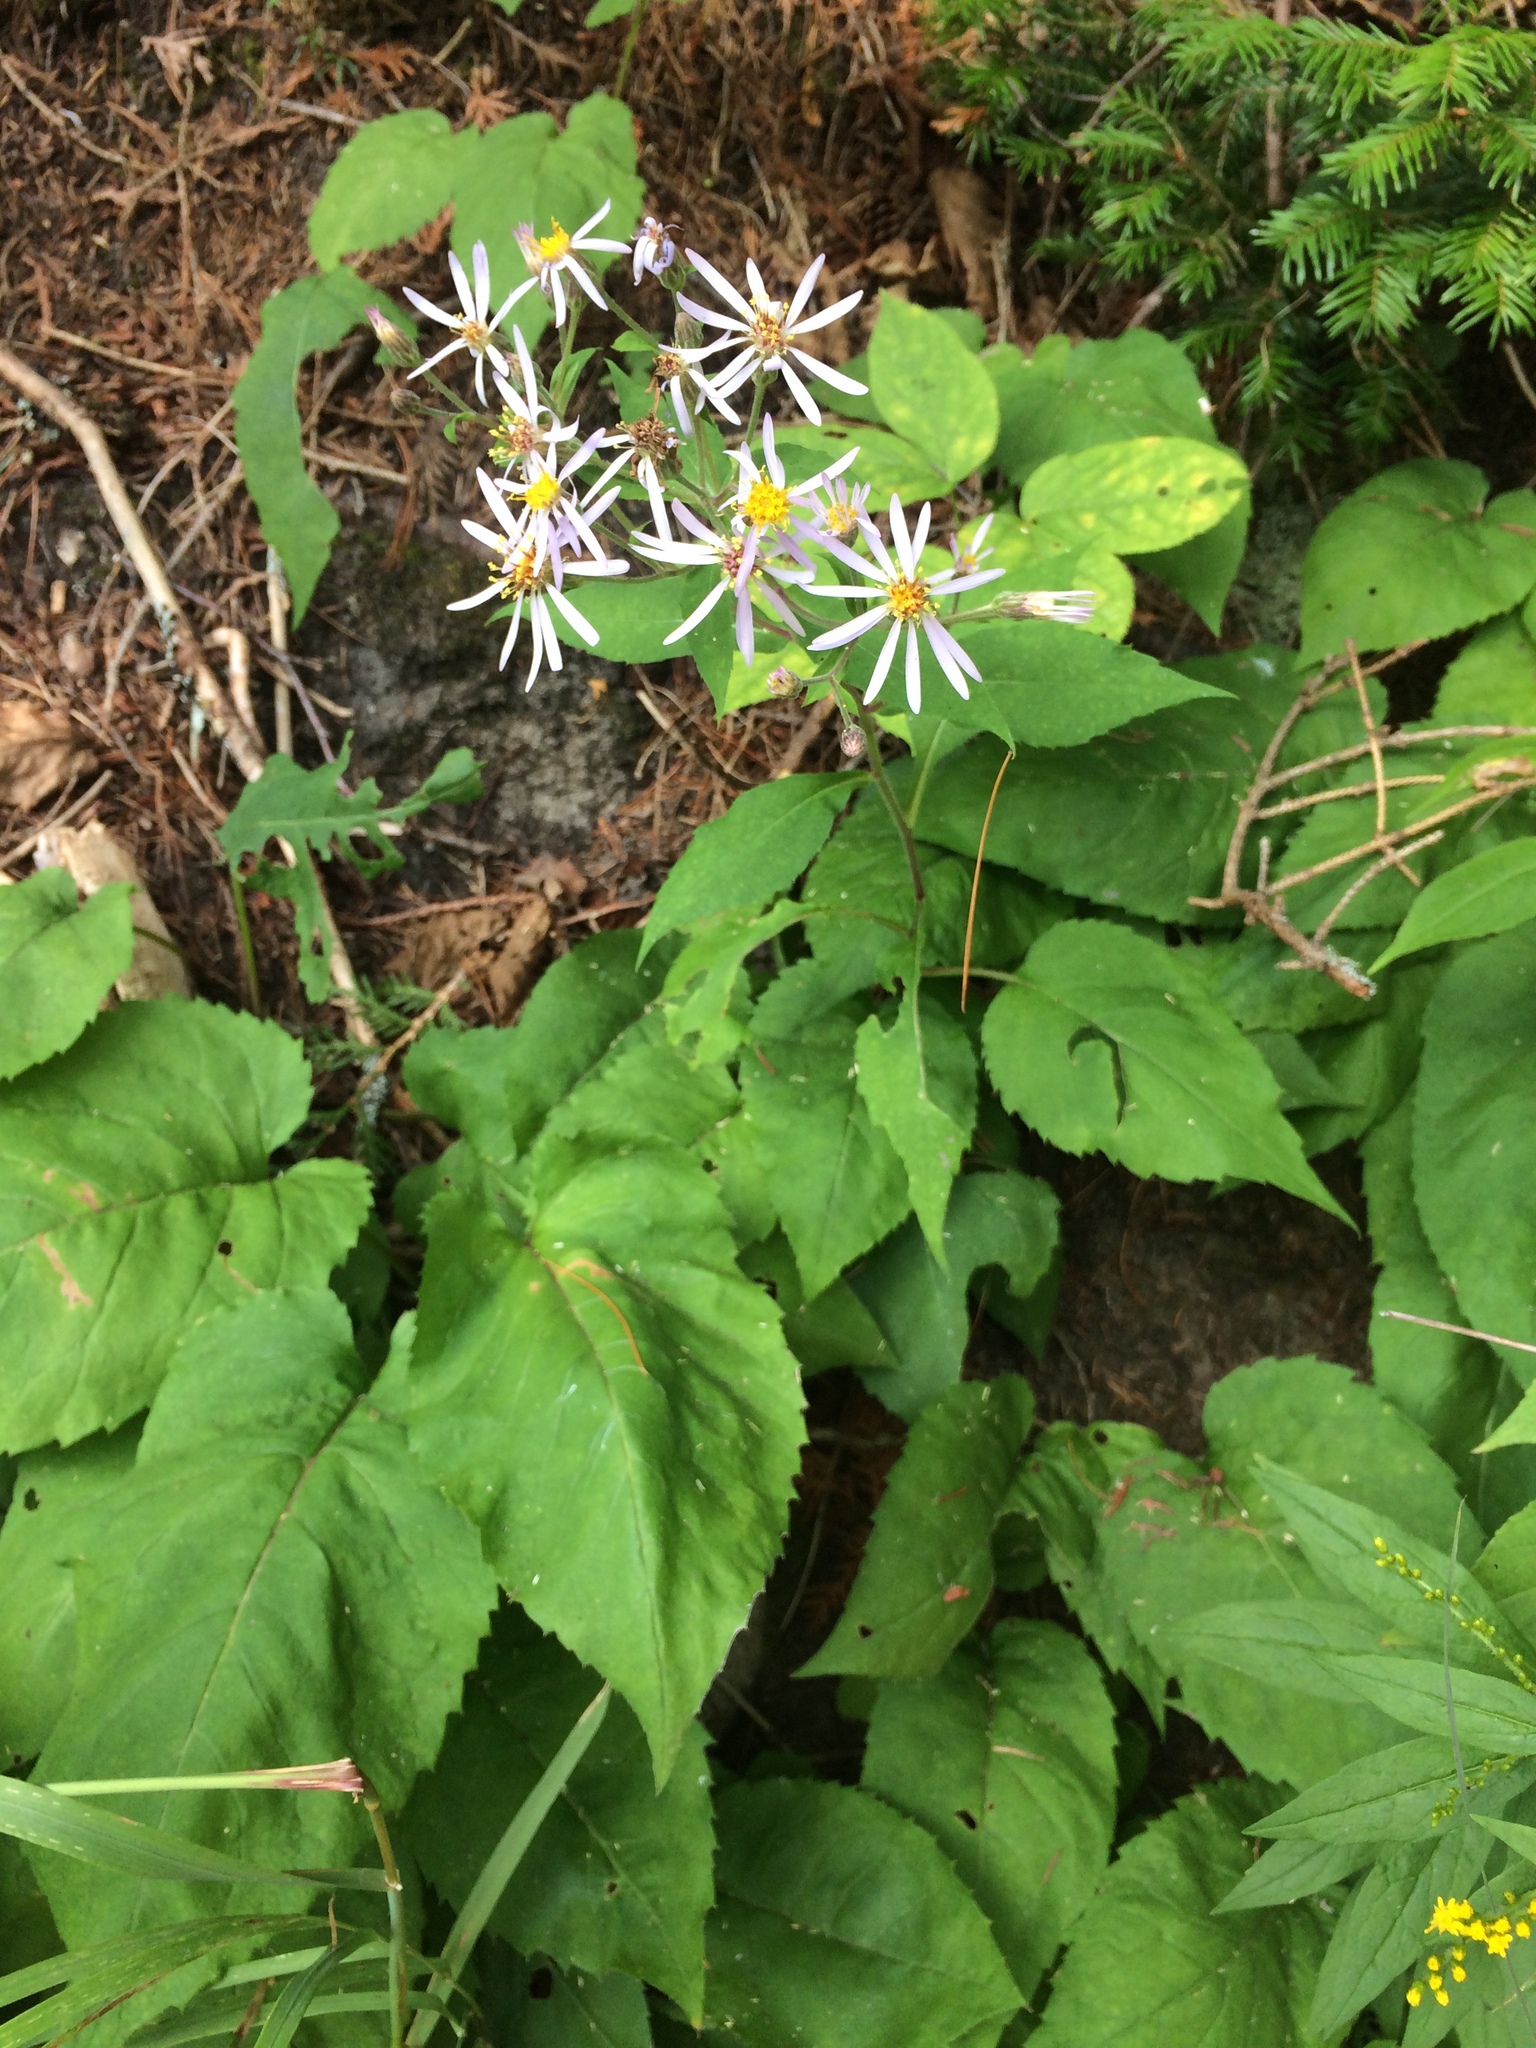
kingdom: Plantae
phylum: Tracheophyta
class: Magnoliopsida
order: Asterales
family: Asteraceae
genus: Eurybia
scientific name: Eurybia macrophylla
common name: Big-leaved aster
